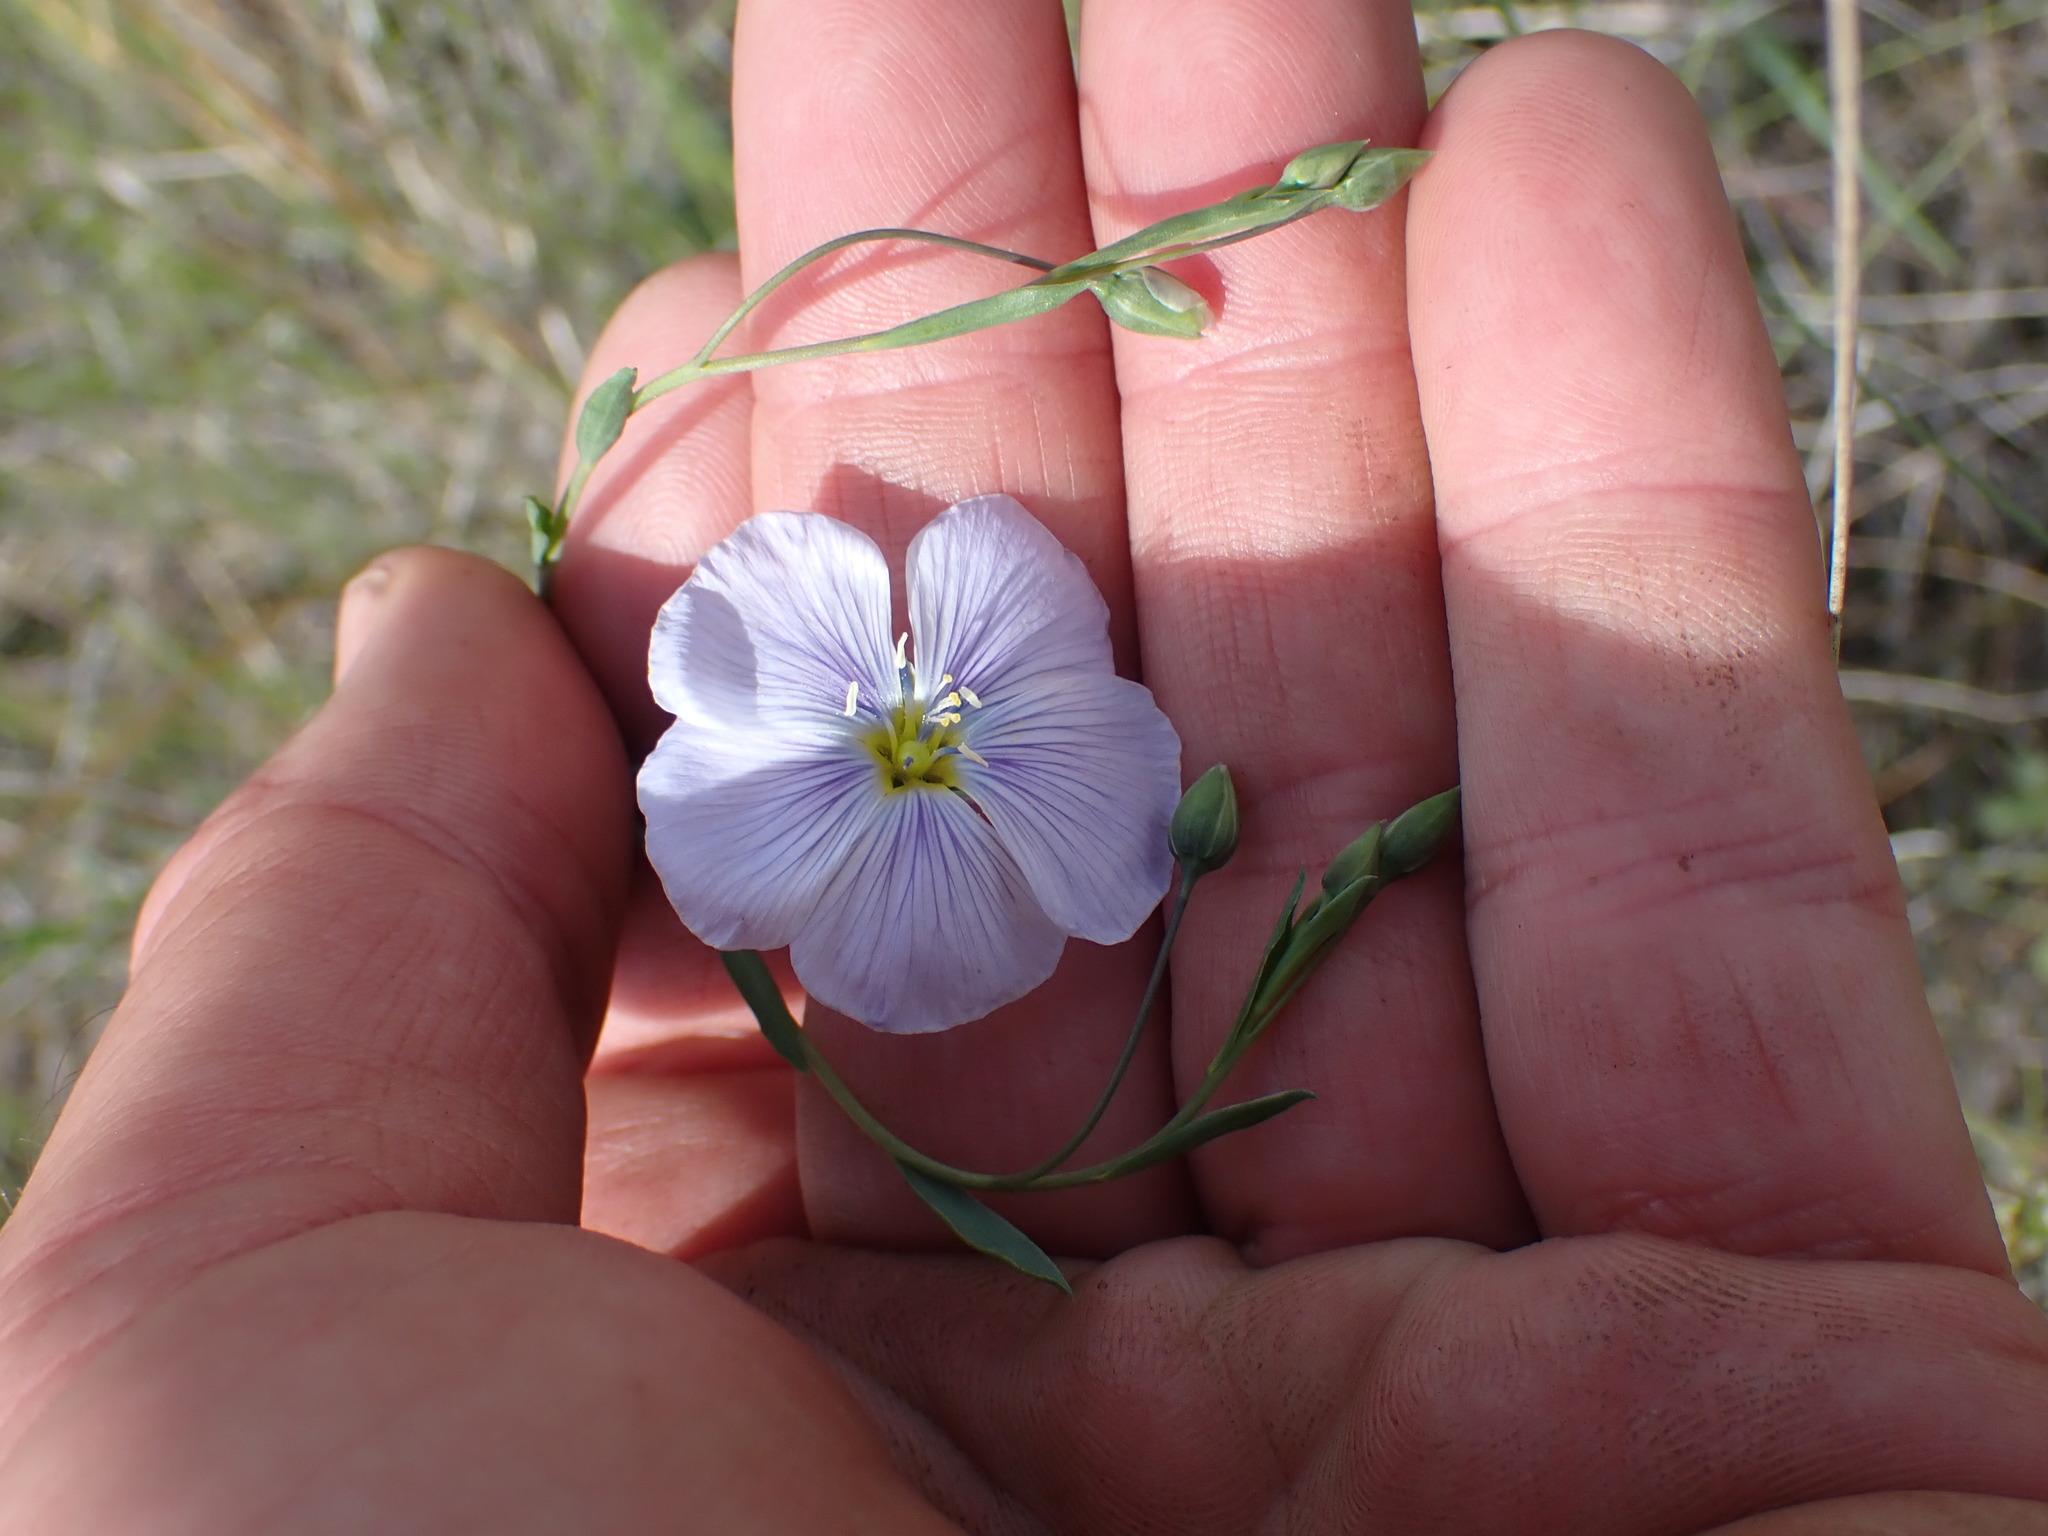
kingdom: Plantae
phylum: Tracheophyta
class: Magnoliopsida
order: Malpighiales
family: Linaceae
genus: Linum
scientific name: Linum lewisii
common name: Prairie flax
